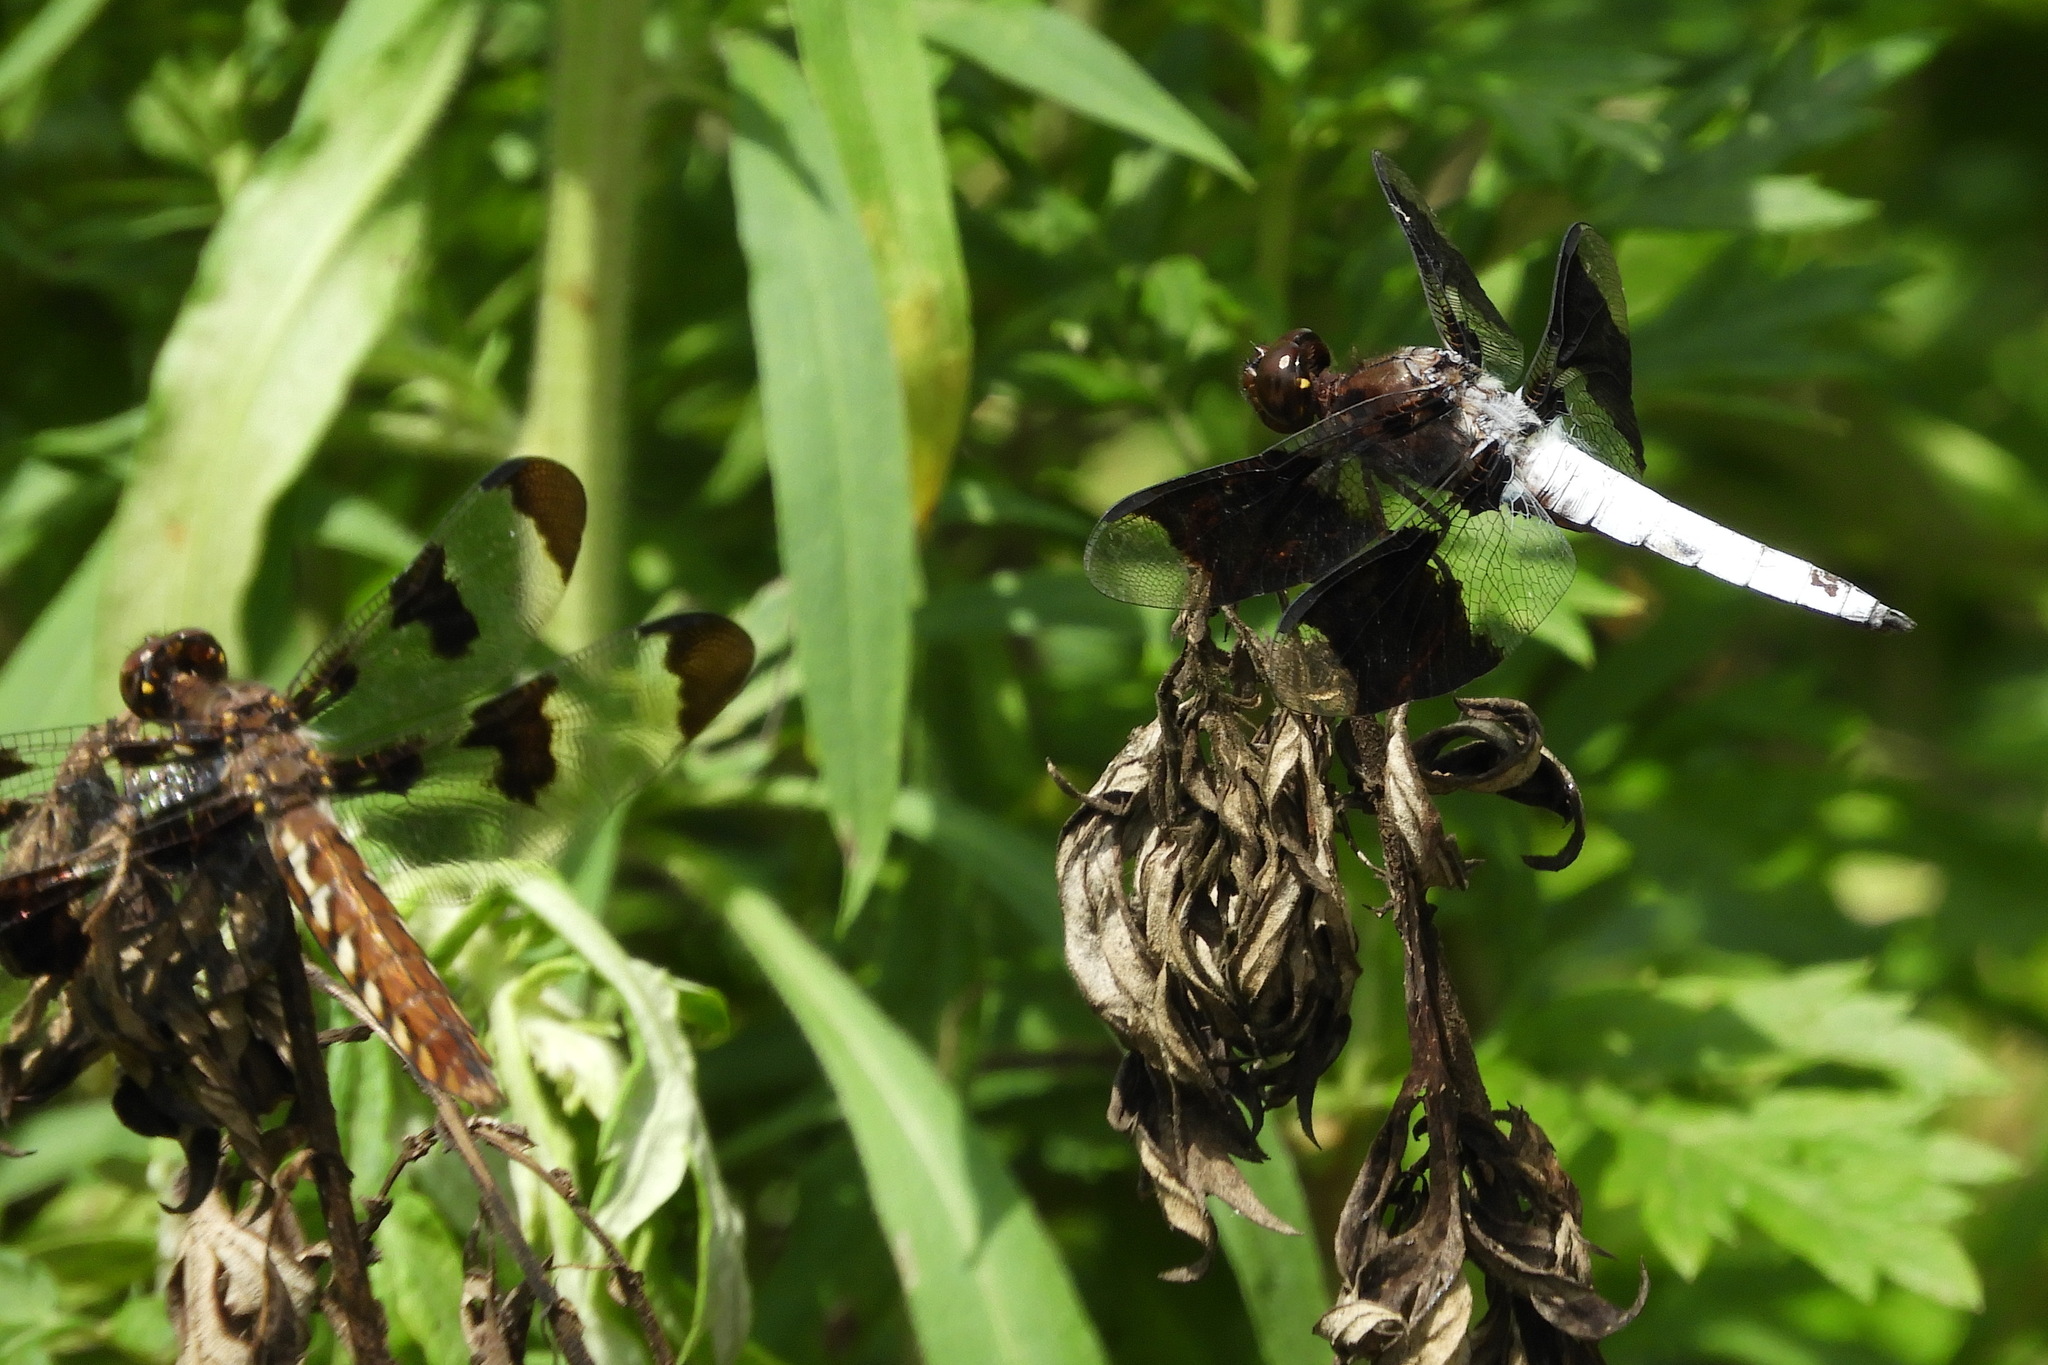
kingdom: Animalia
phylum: Arthropoda
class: Insecta
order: Odonata
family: Libellulidae
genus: Plathemis
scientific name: Plathemis lydia
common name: Common whitetail
